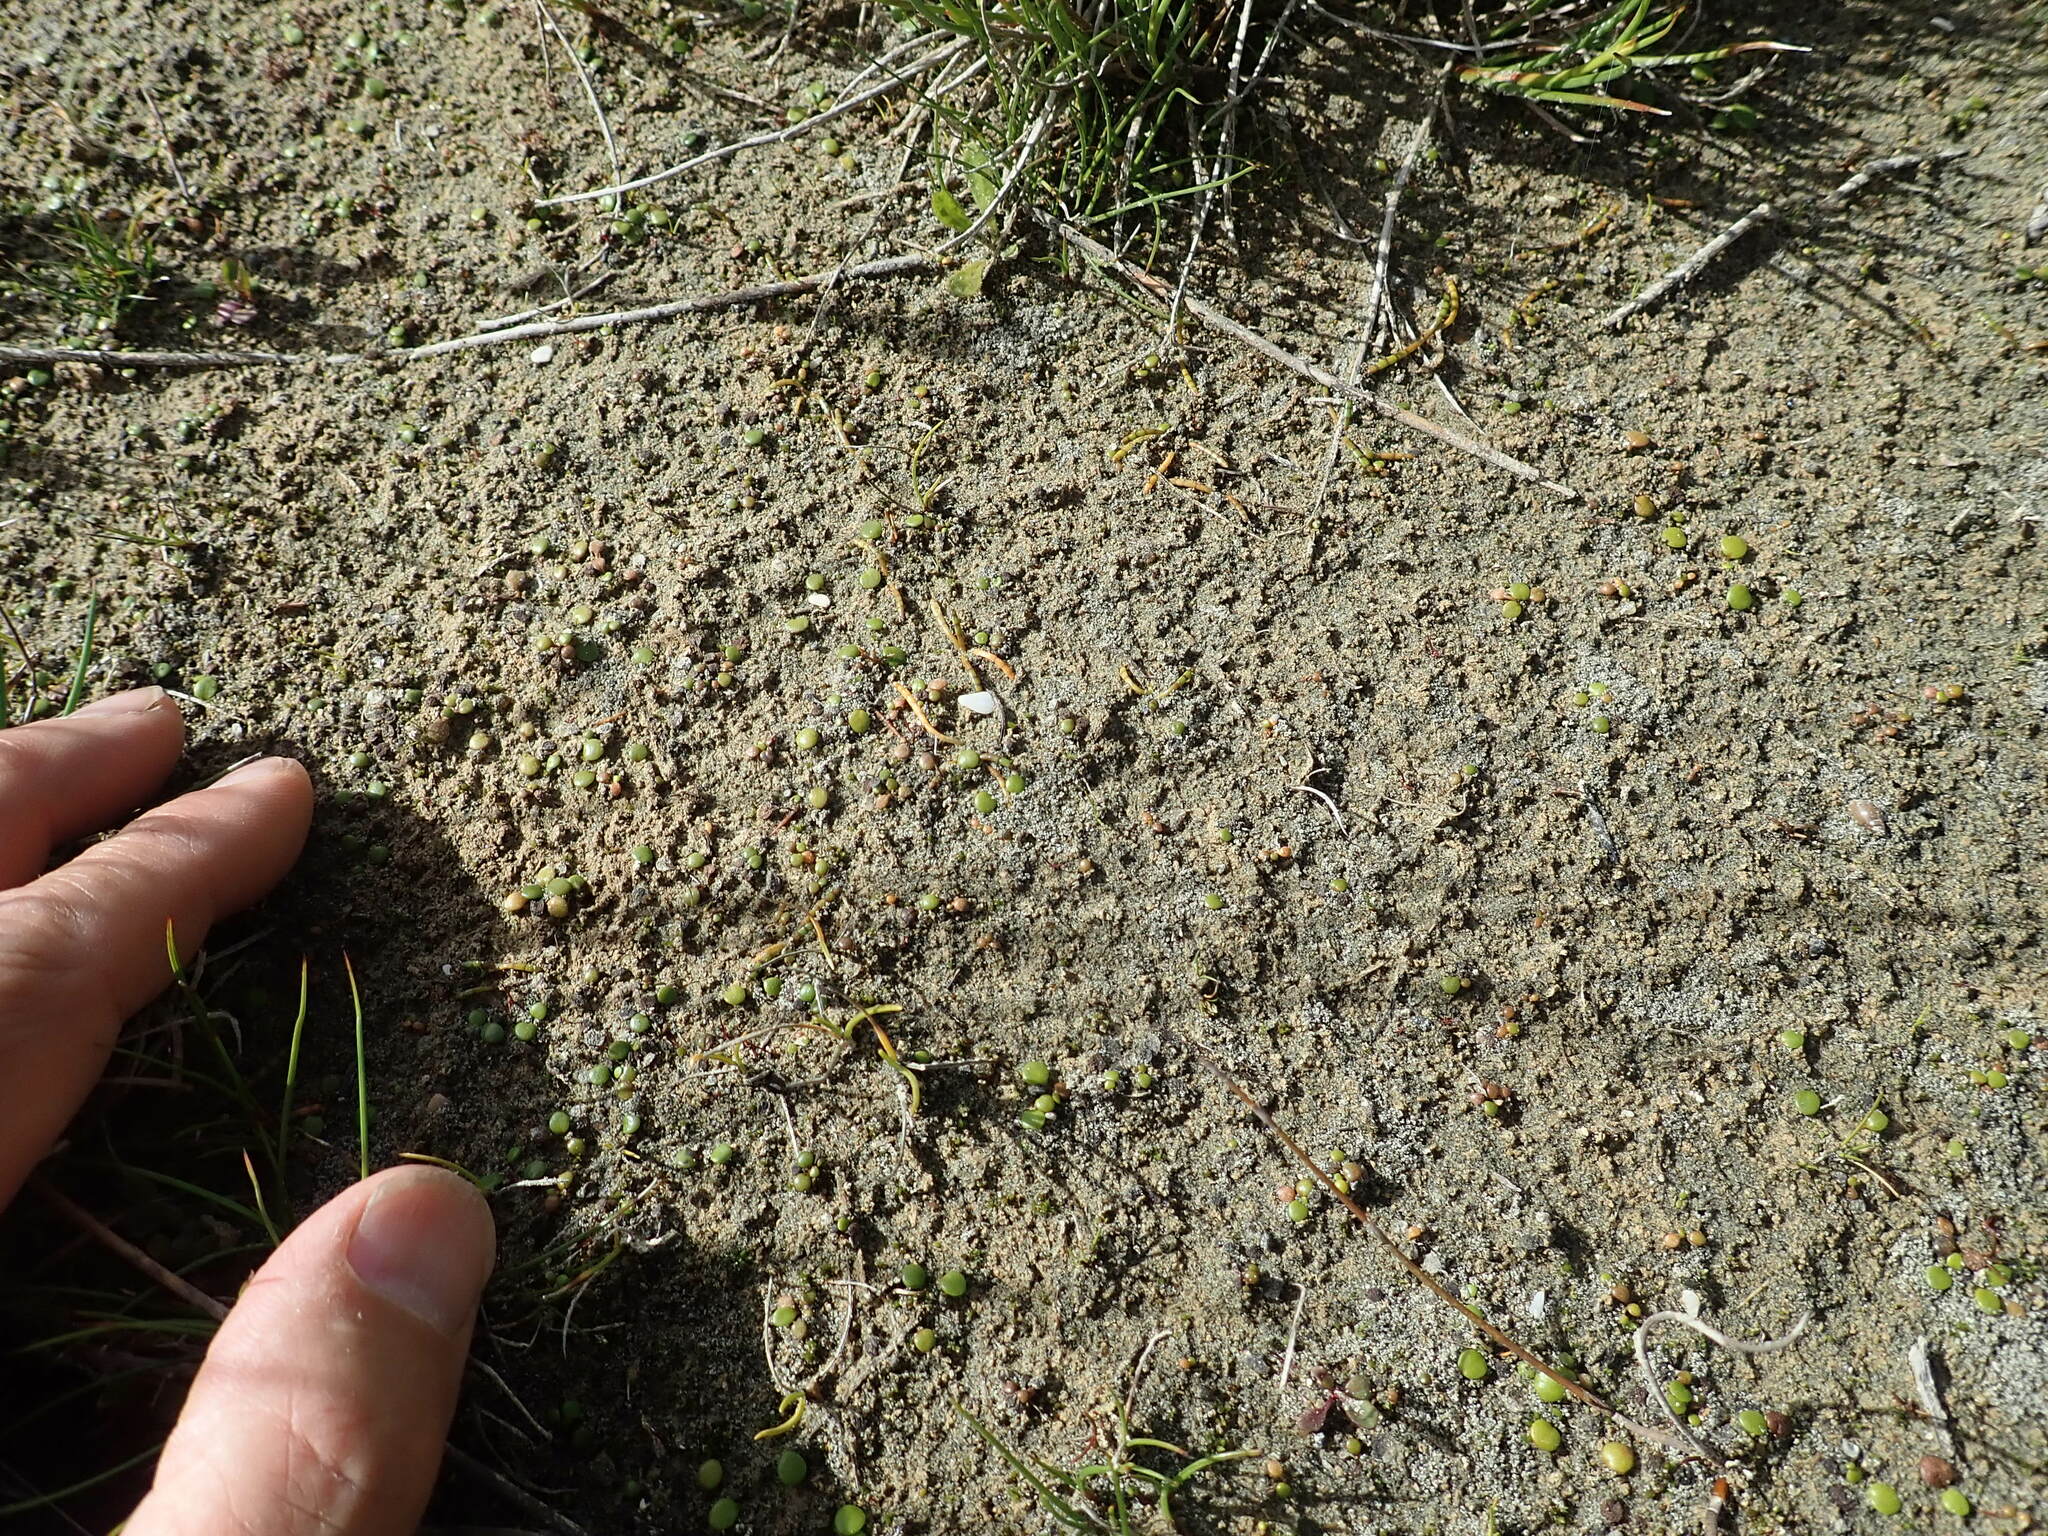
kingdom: Plantae
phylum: Tracheophyta
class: Magnoliopsida
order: Apiales
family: Apiaceae
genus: Lilaeopsis
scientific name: Lilaeopsis novae-zelandiae
